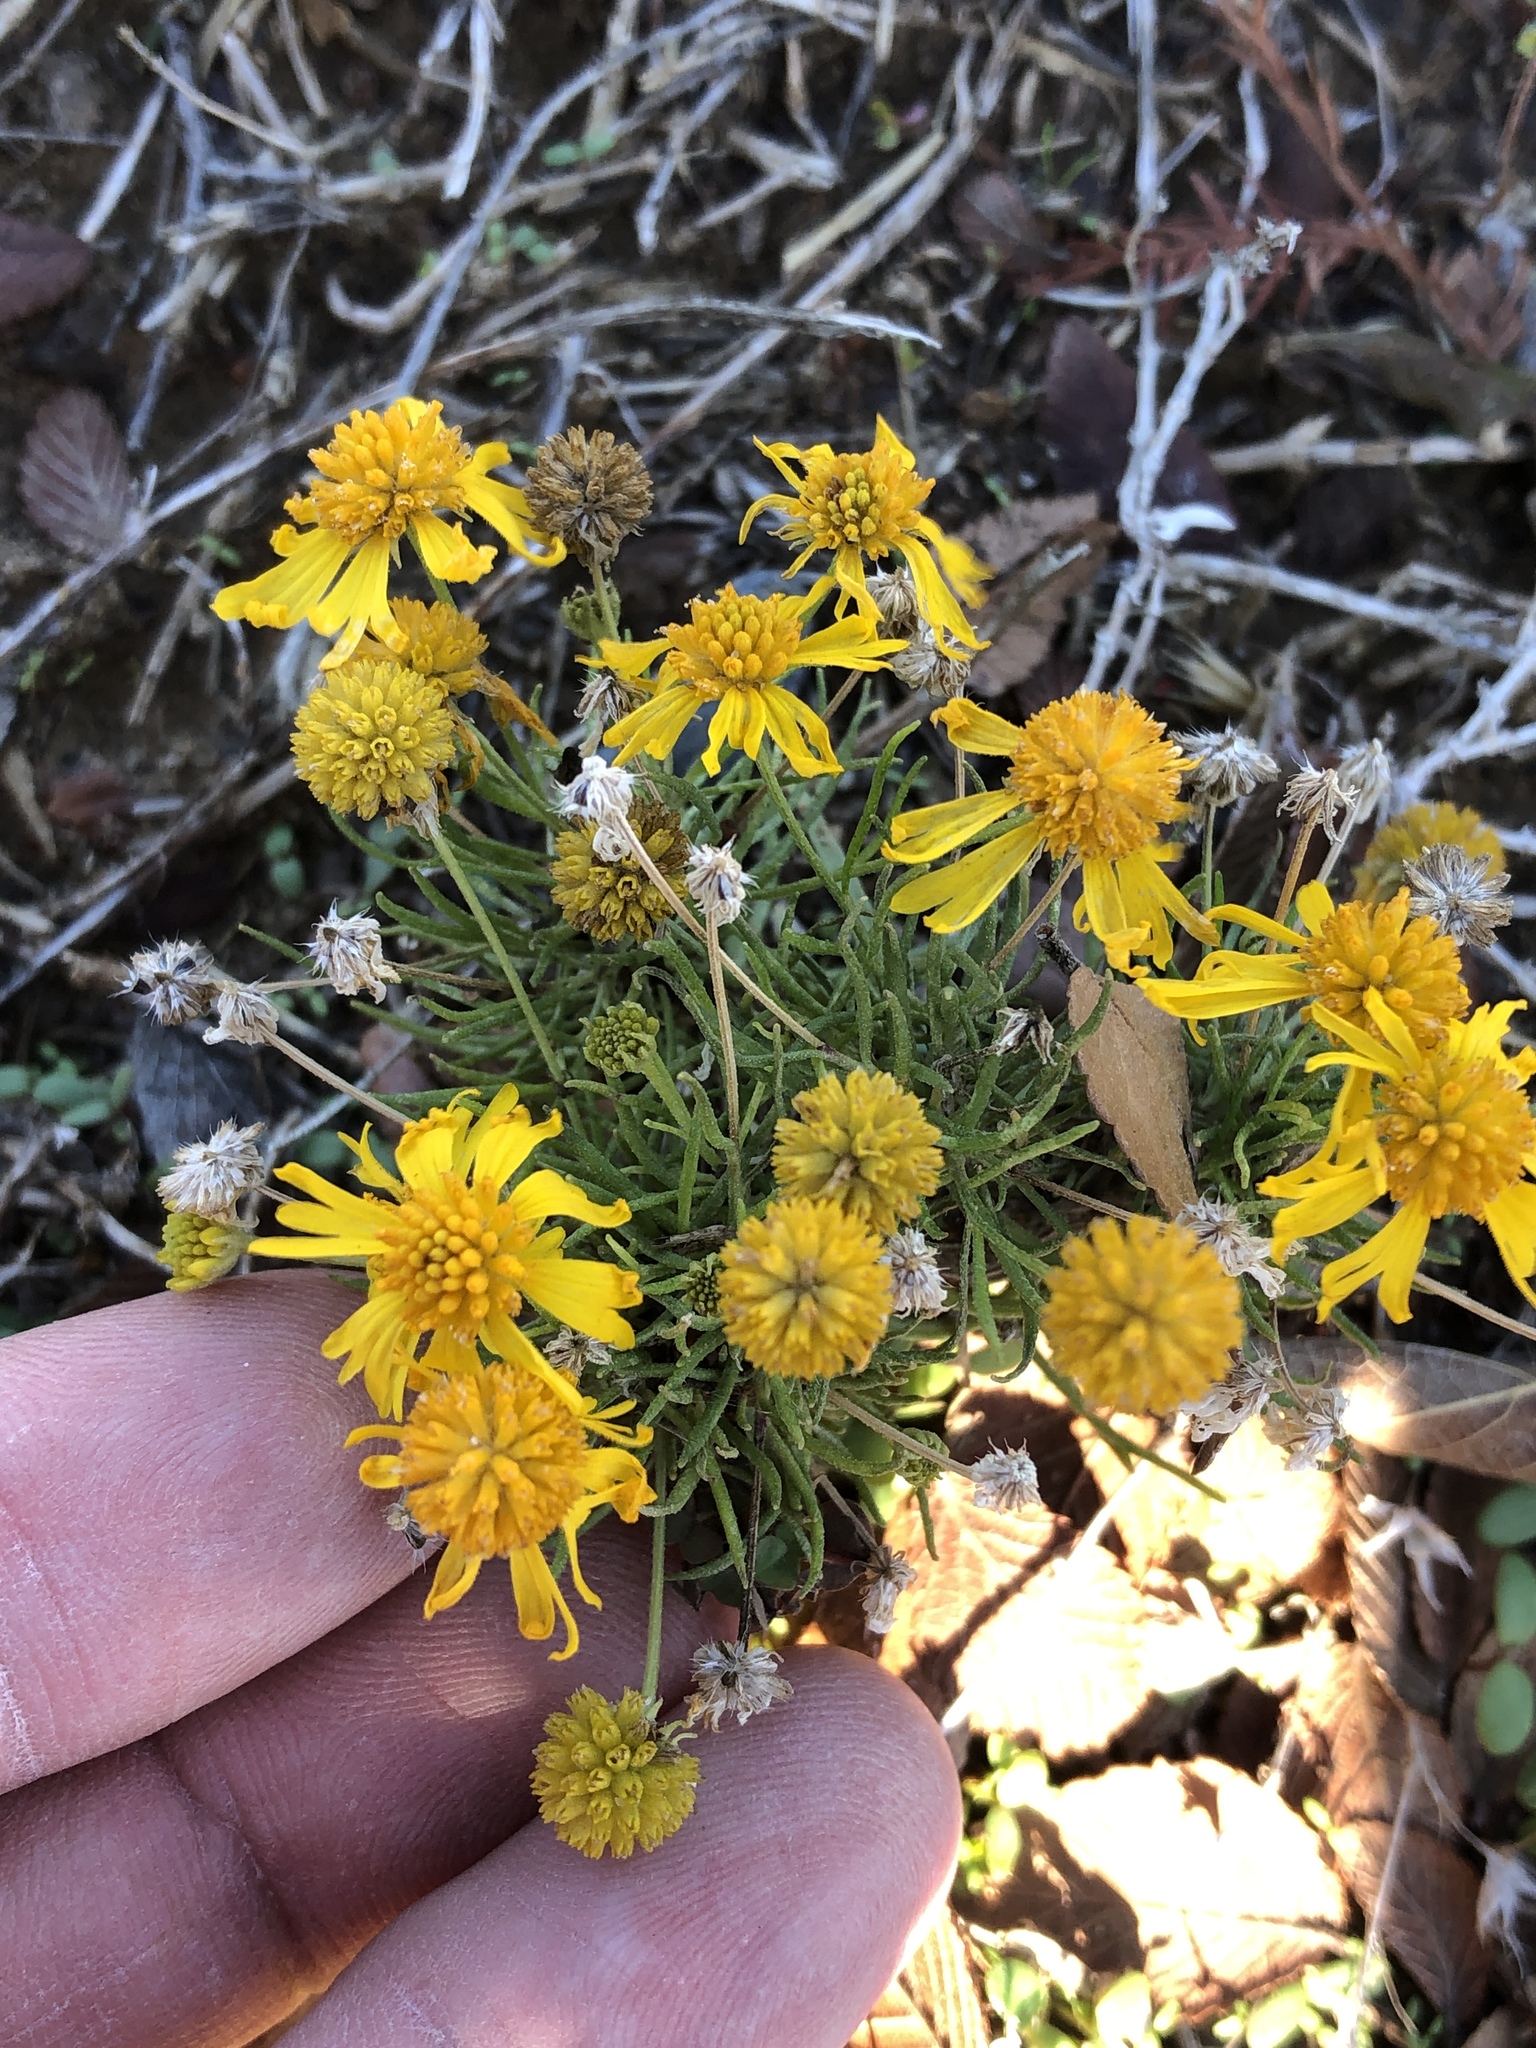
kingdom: Plantae
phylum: Tracheophyta
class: Magnoliopsida
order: Asterales
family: Asteraceae
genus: Helenium
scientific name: Helenium amarum
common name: Bitter sneezeweed
